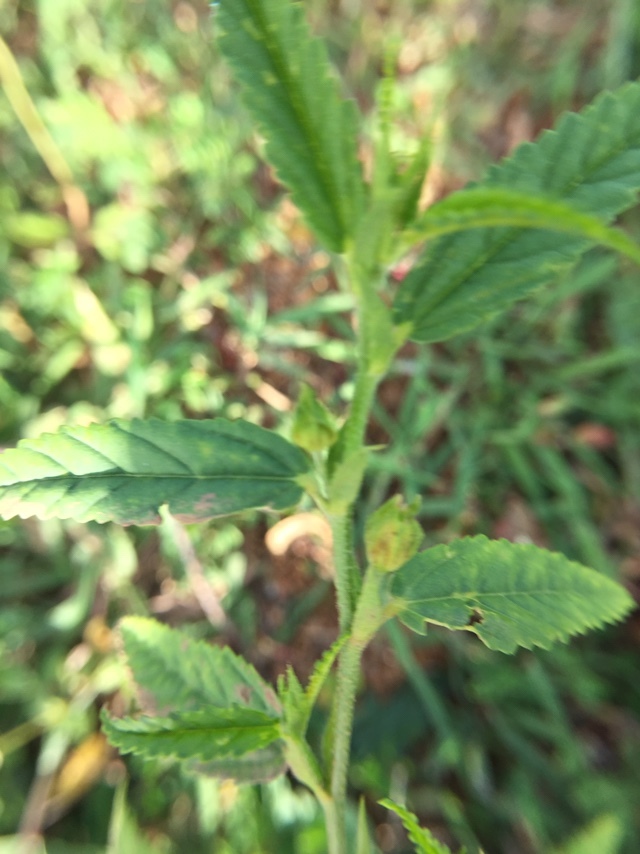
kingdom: Plantae
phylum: Tracheophyta
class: Magnoliopsida
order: Malvales
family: Malvaceae
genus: Sida
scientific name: Sida acuta
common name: Common wireweed
